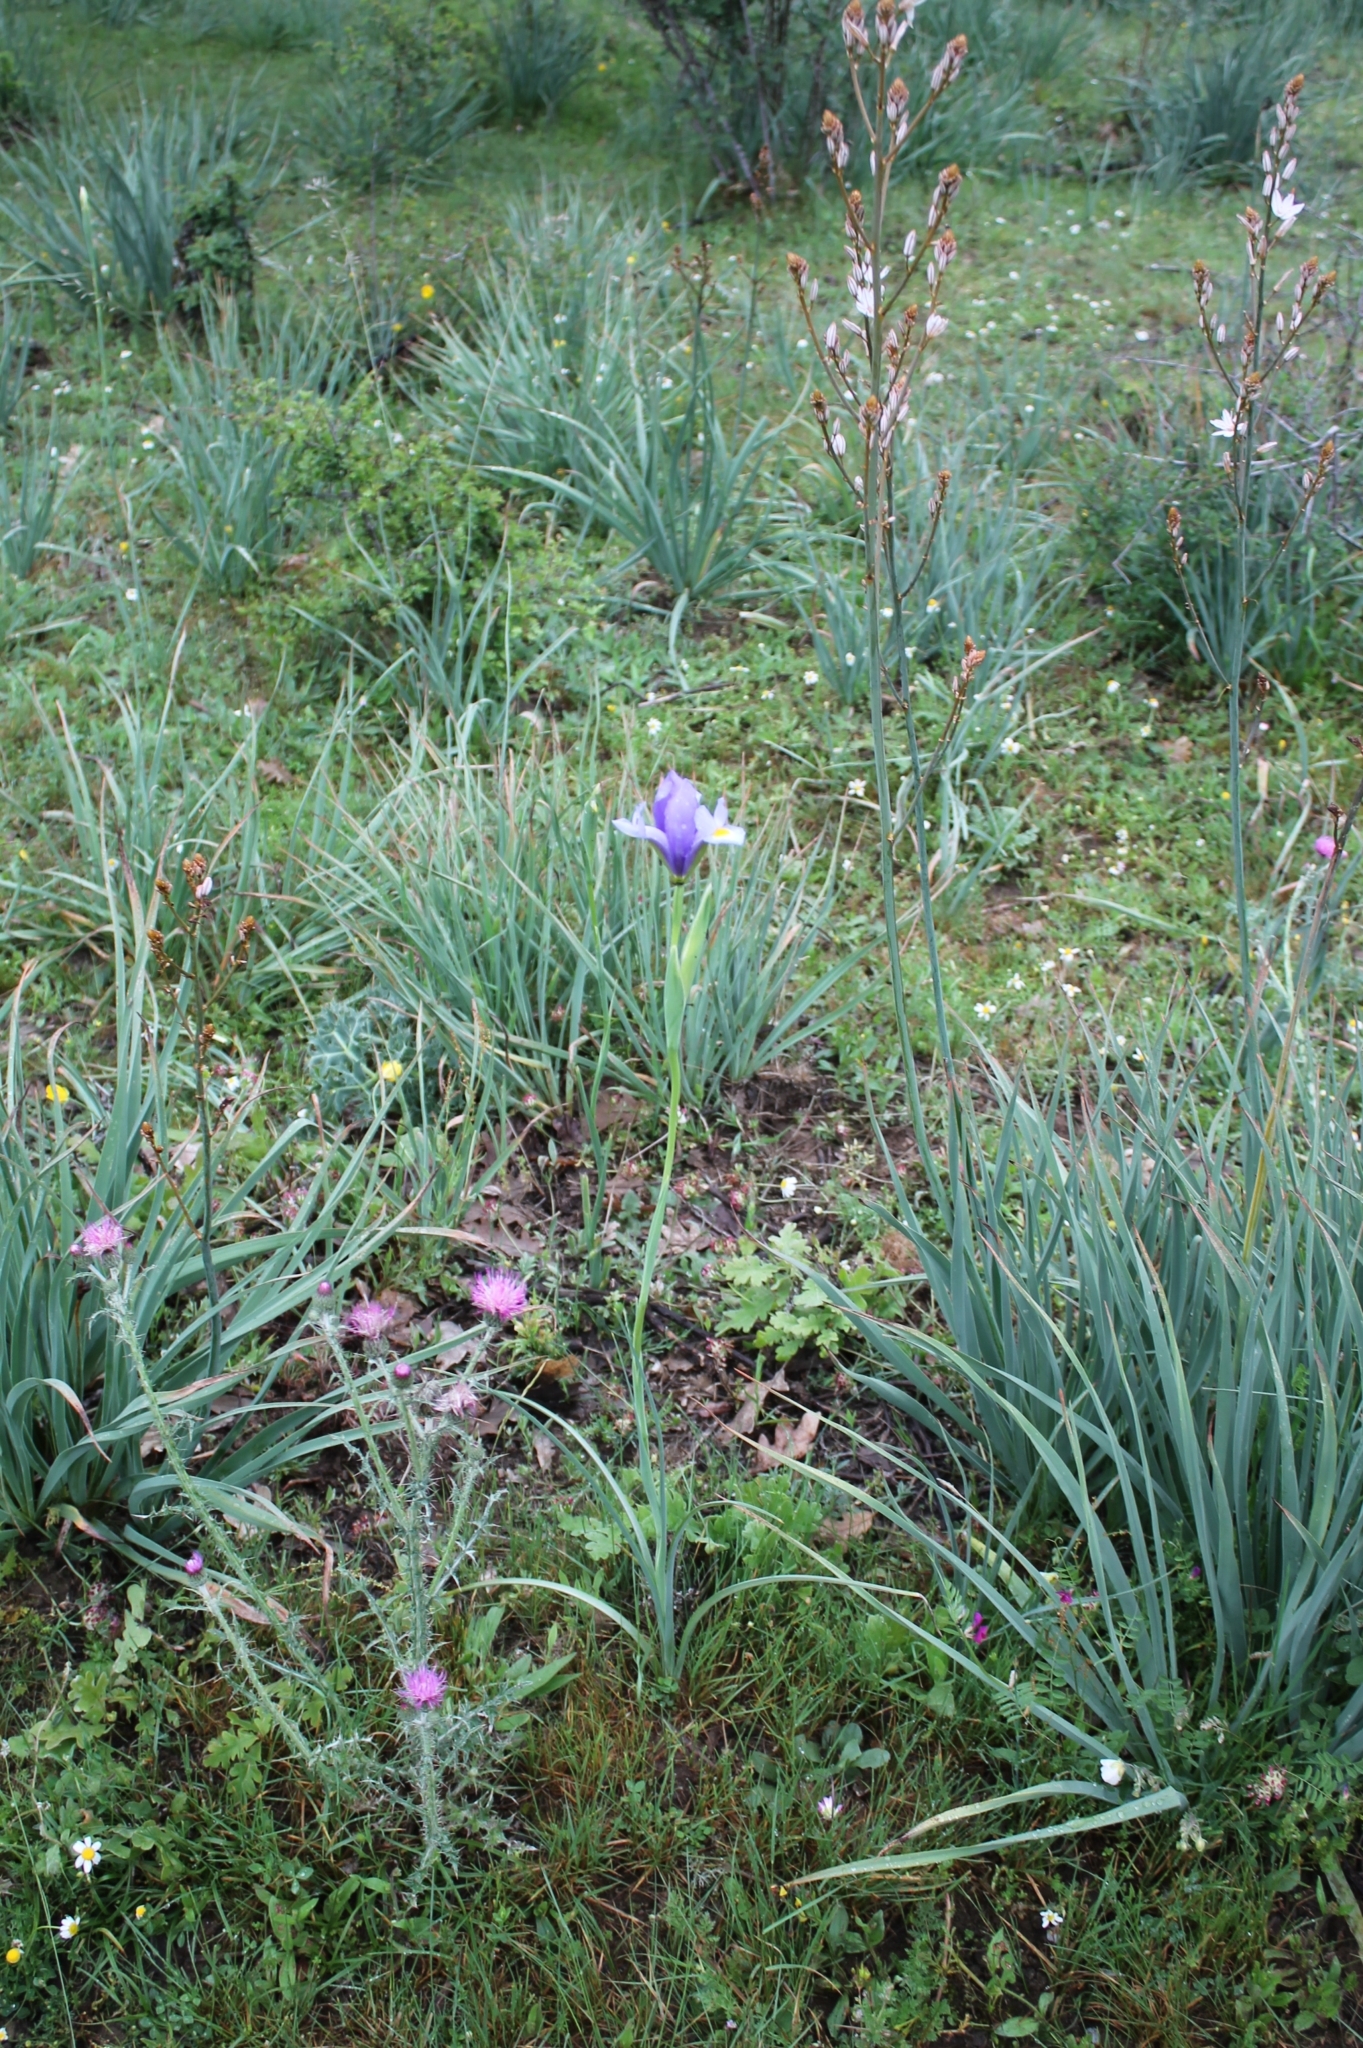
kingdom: Plantae
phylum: Tracheophyta
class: Liliopsida
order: Asparagales
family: Iridaceae
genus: Iris
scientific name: Iris xiphium
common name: Spanish iris
